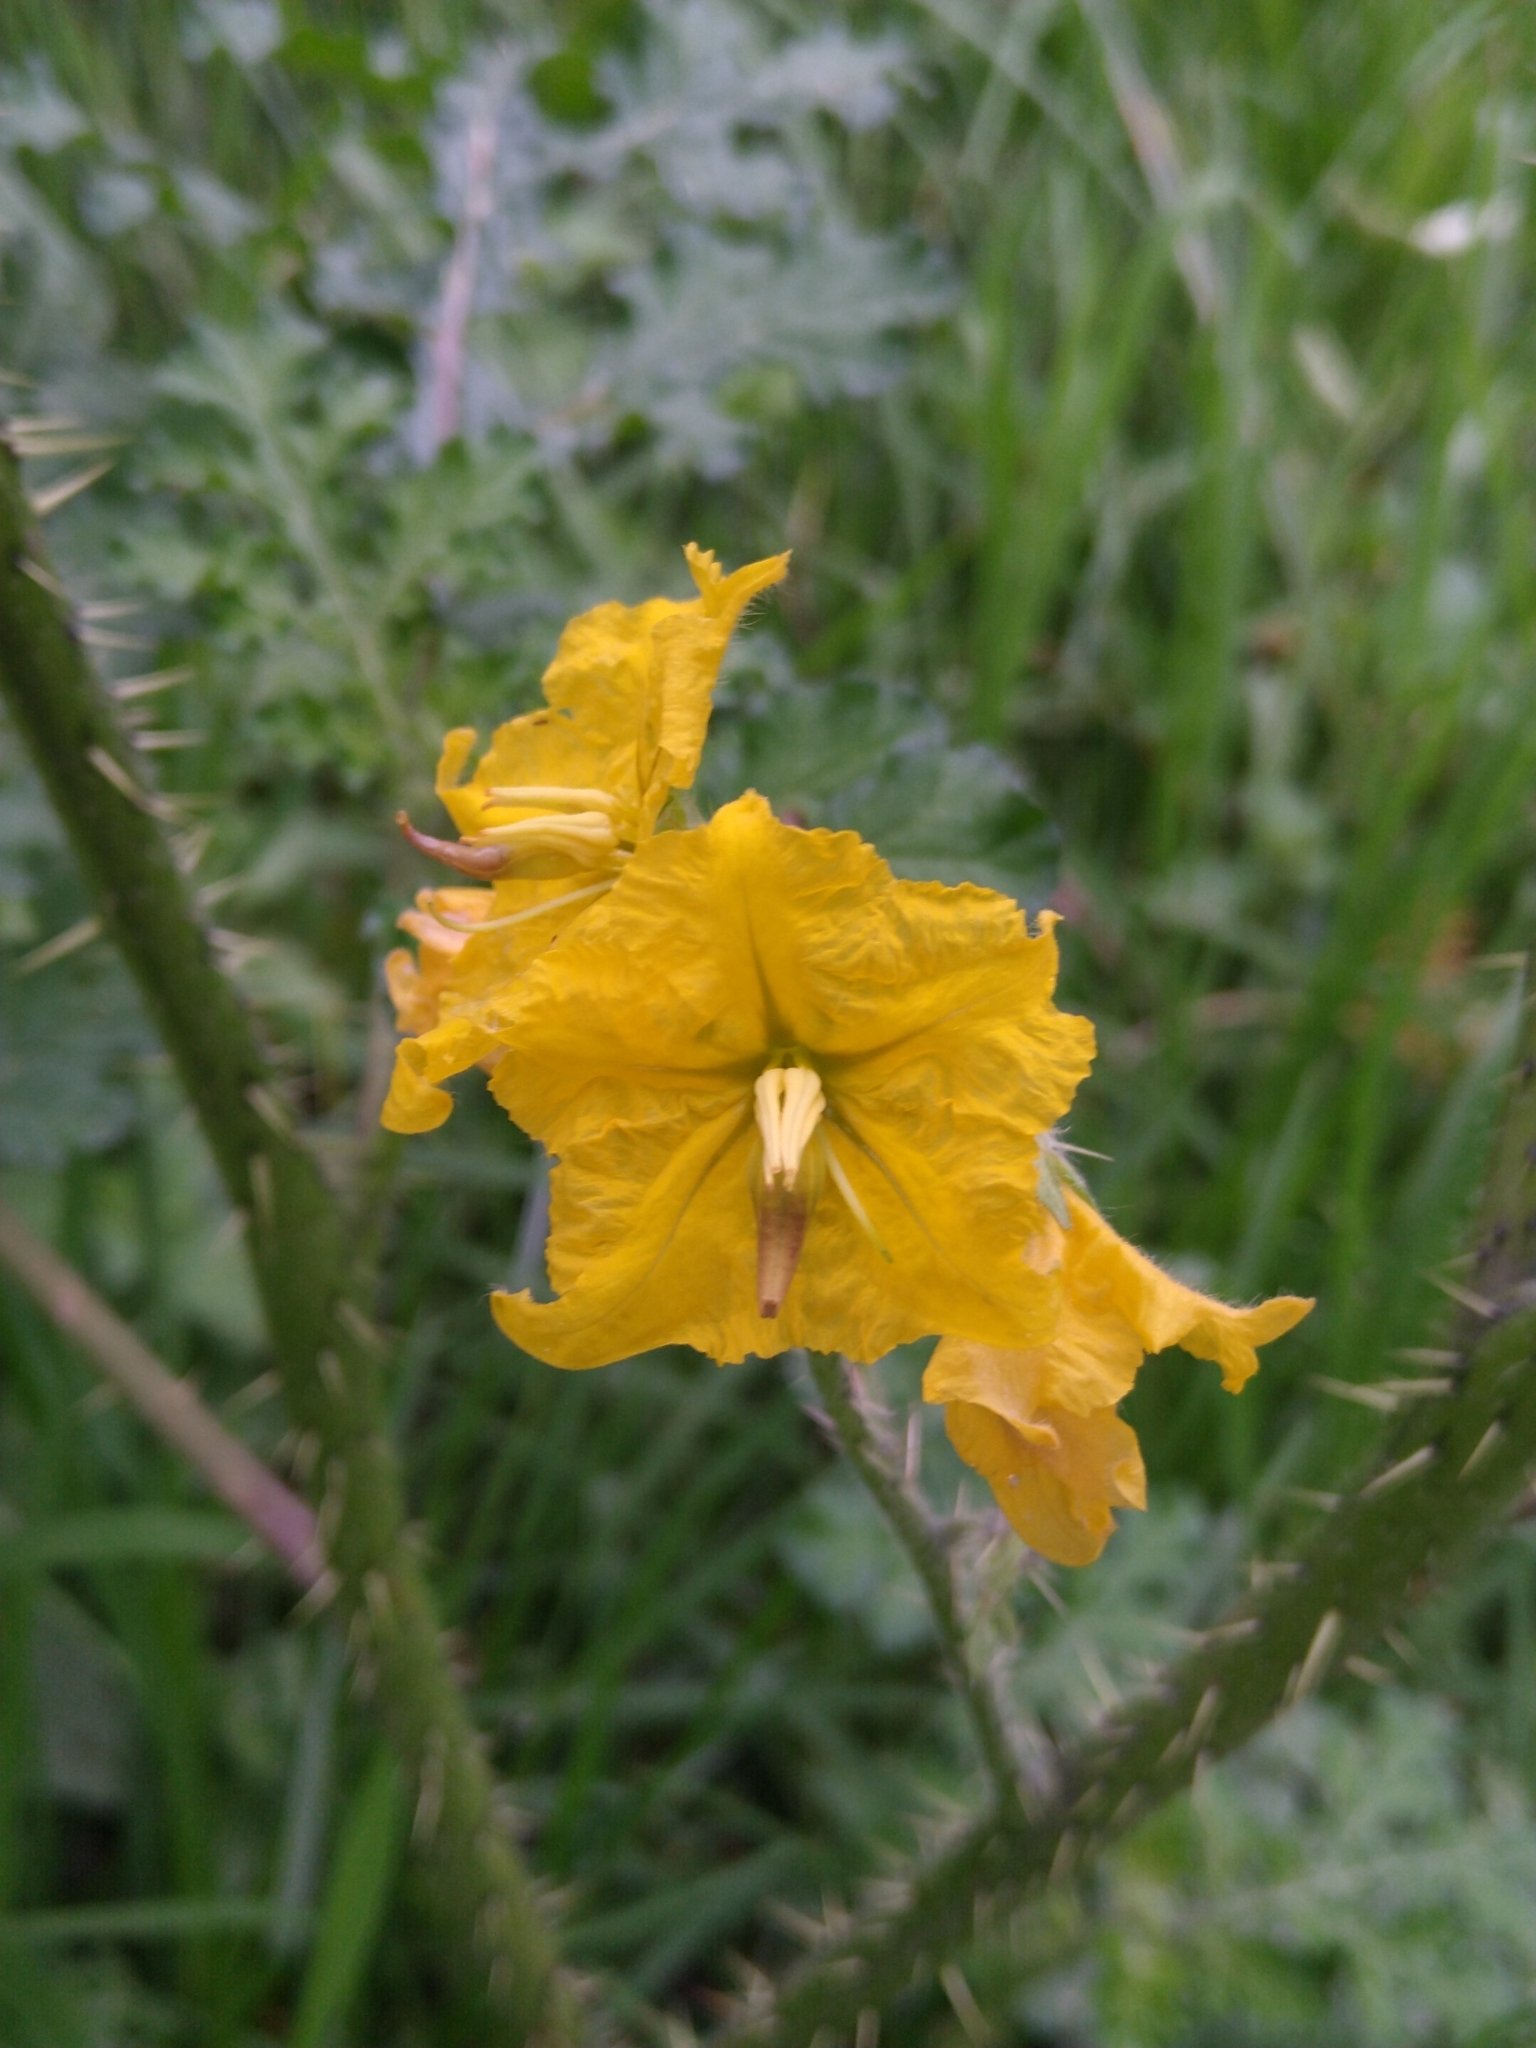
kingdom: Plantae
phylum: Tracheophyta
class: Magnoliopsida
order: Solanales
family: Solanaceae
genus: Solanum
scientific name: Solanum angustifolium
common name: Buffalobur nightshade
